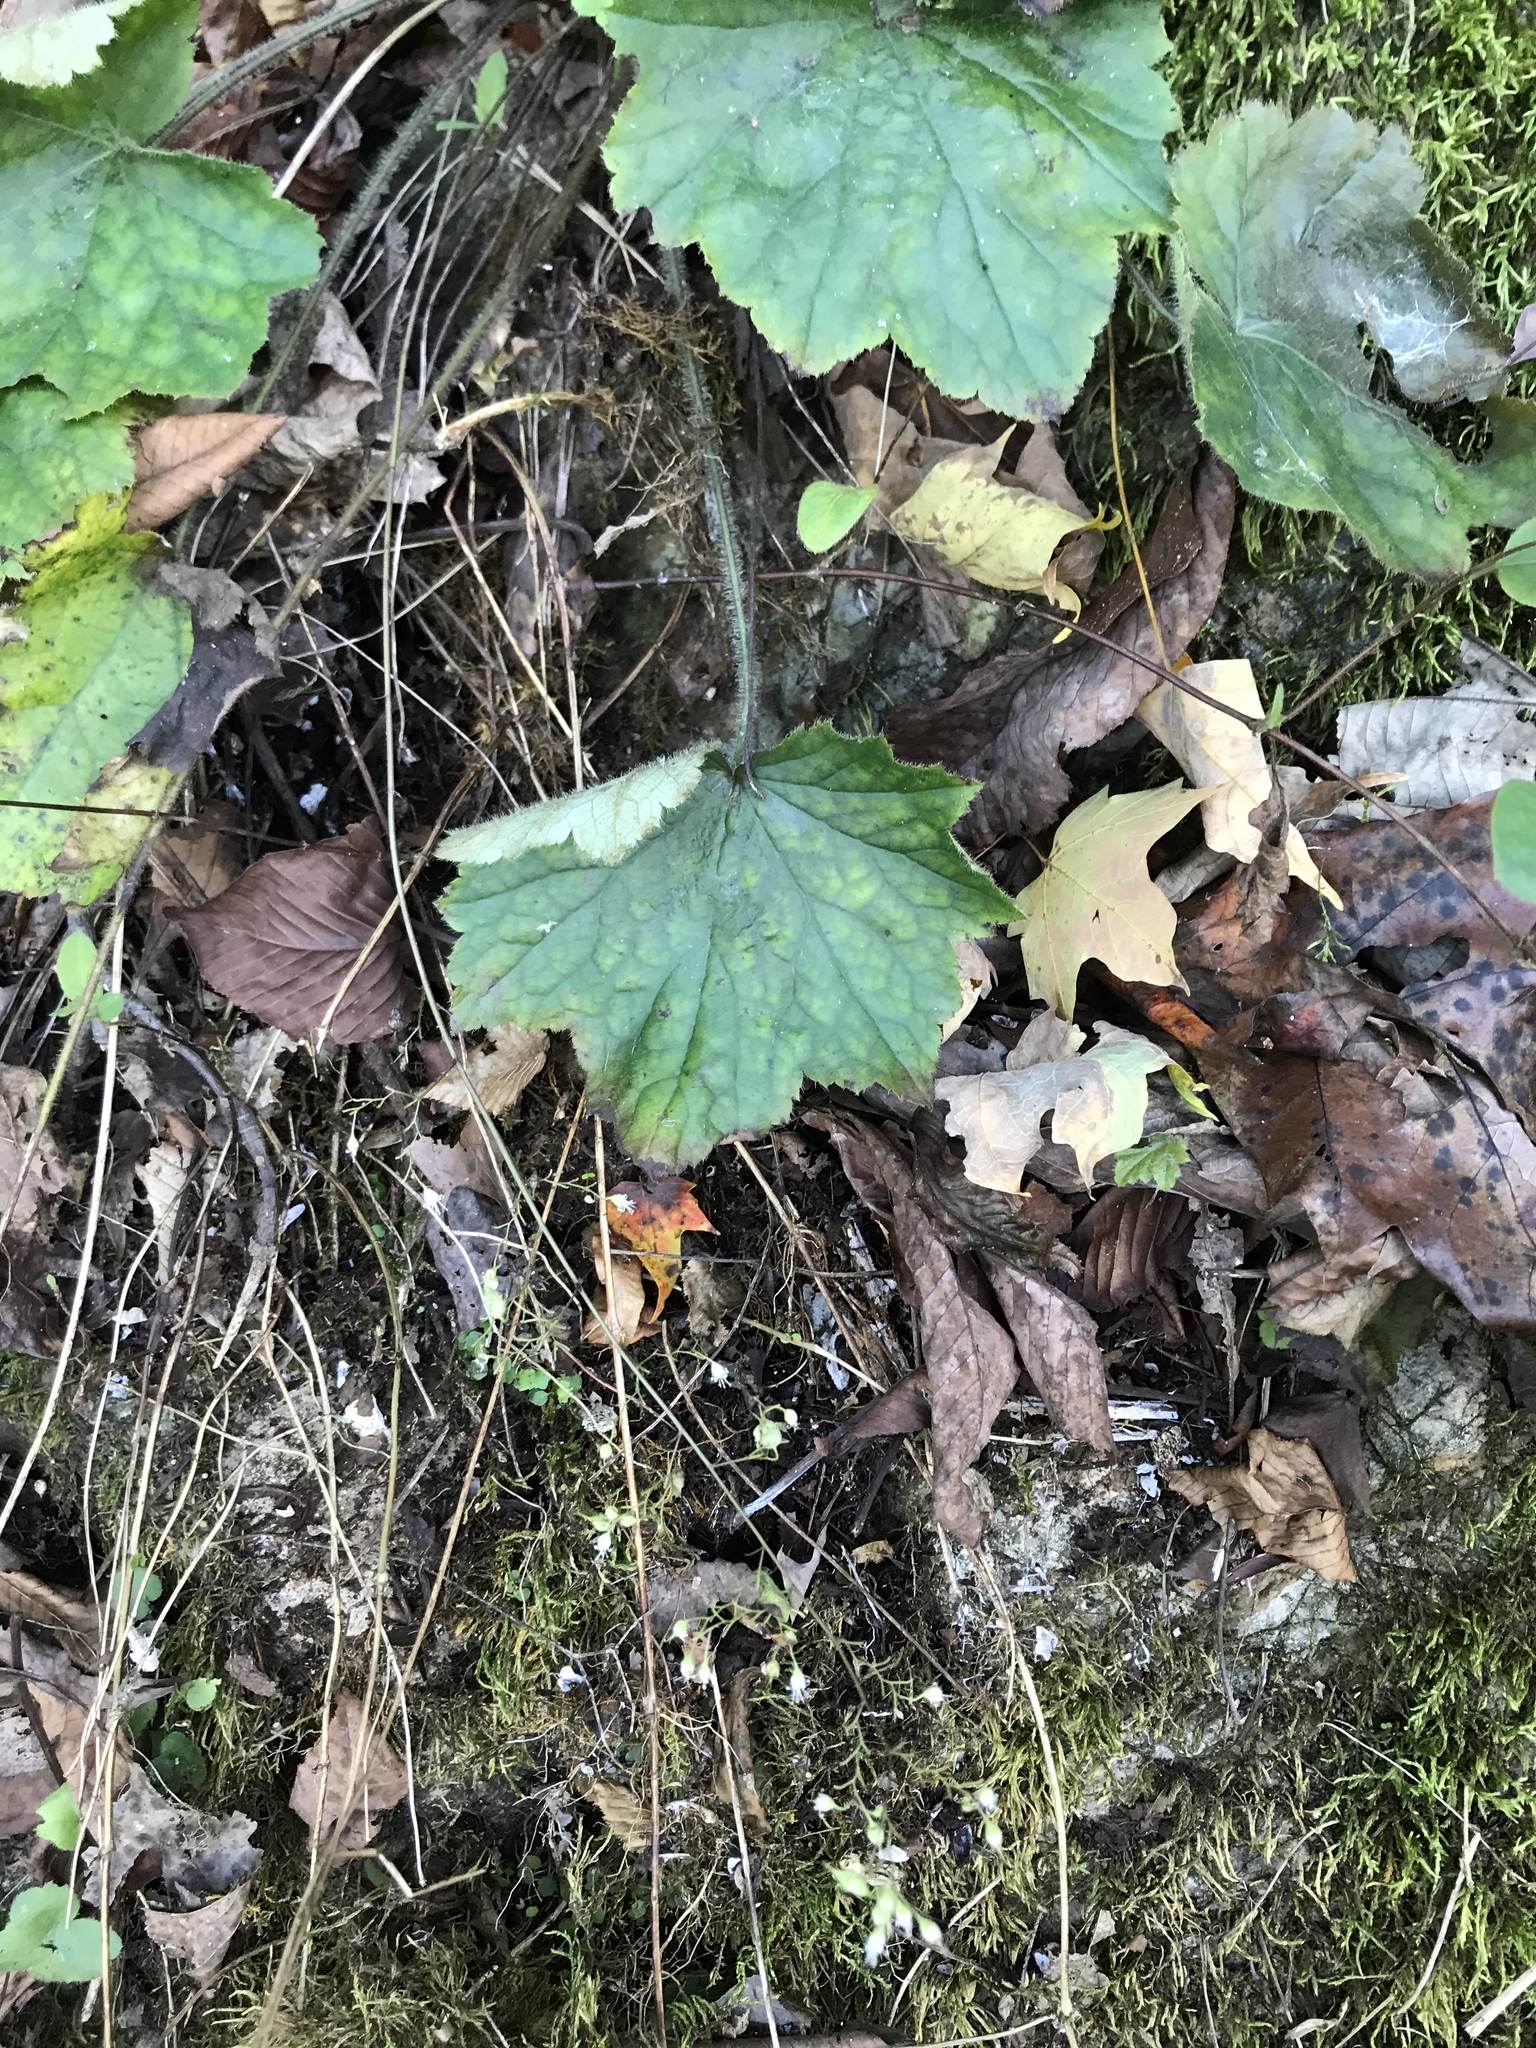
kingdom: Plantae
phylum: Tracheophyta
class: Magnoliopsida
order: Saxifragales
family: Saxifragaceae
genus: Heuchera
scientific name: Heuchera villosa
